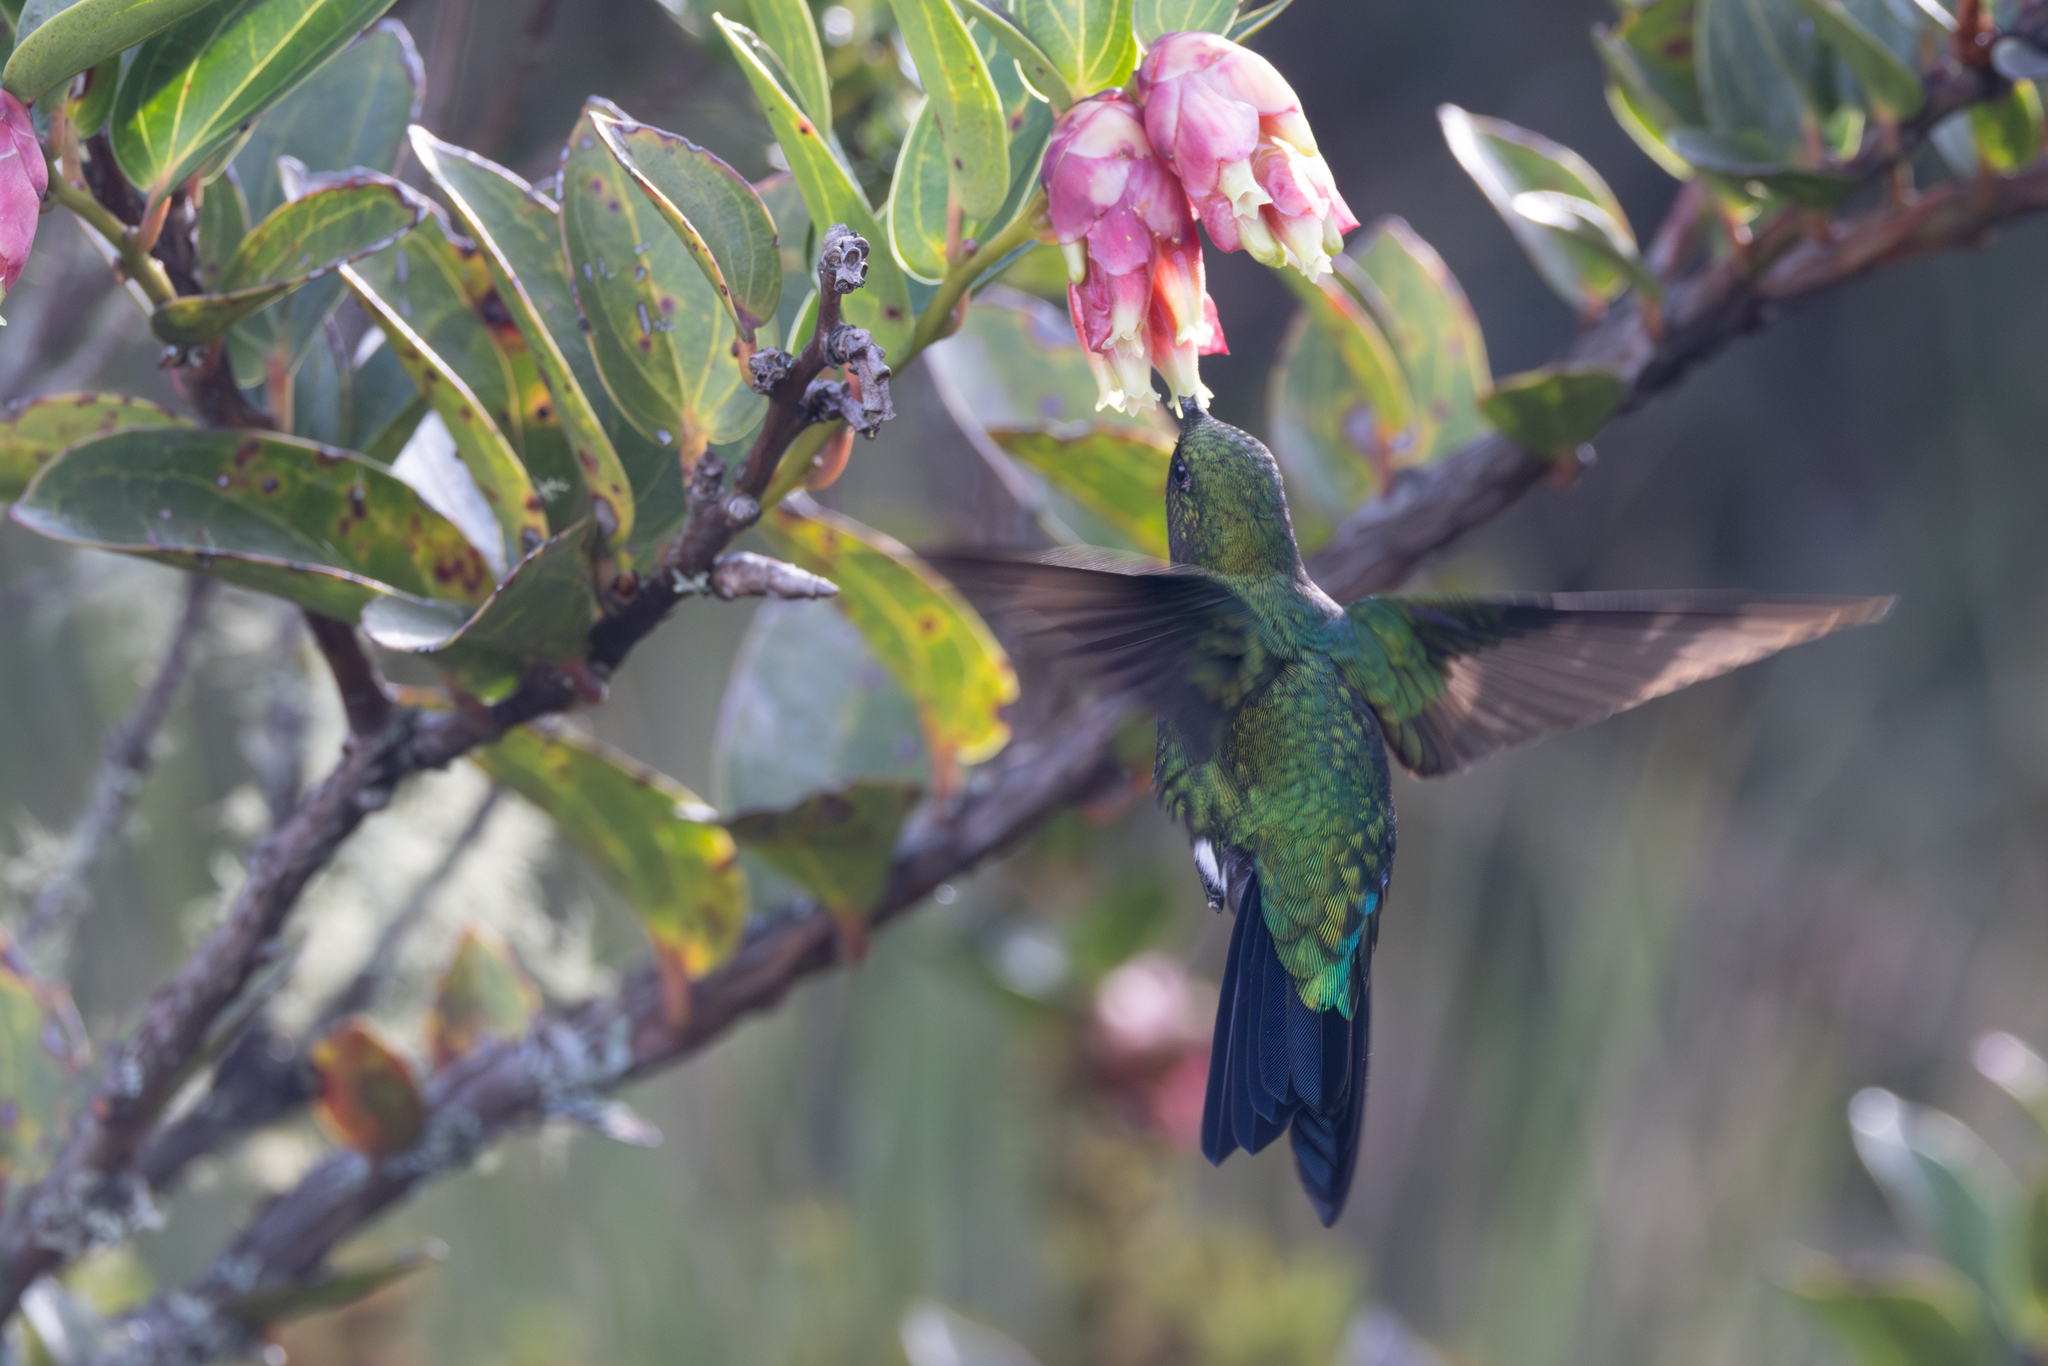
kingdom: Animalia
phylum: Chordata
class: Aves
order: Apodiformes
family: Trochilidae
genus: Eriocnemis
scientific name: Eriocnemis vestita
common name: Glowing puffleg
